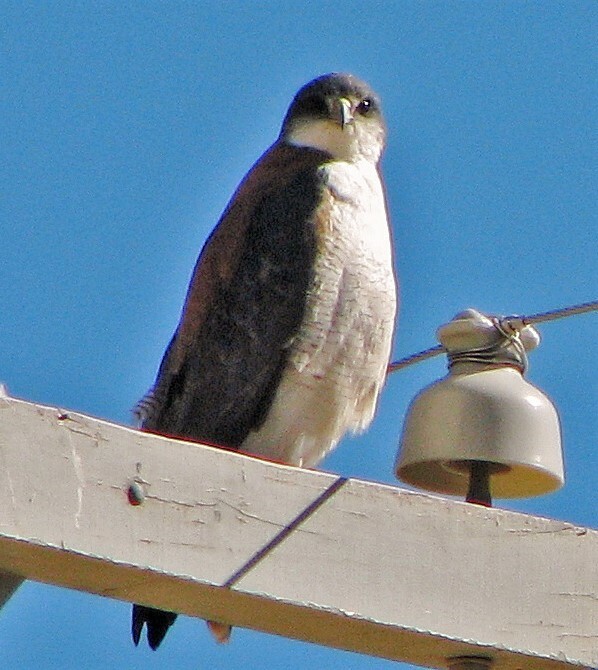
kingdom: Animalia
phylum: Chordata
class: Aves
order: Accipitriformes
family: Accipitridae
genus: Buteo
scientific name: Buteo polyosoma
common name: Variable hawk
